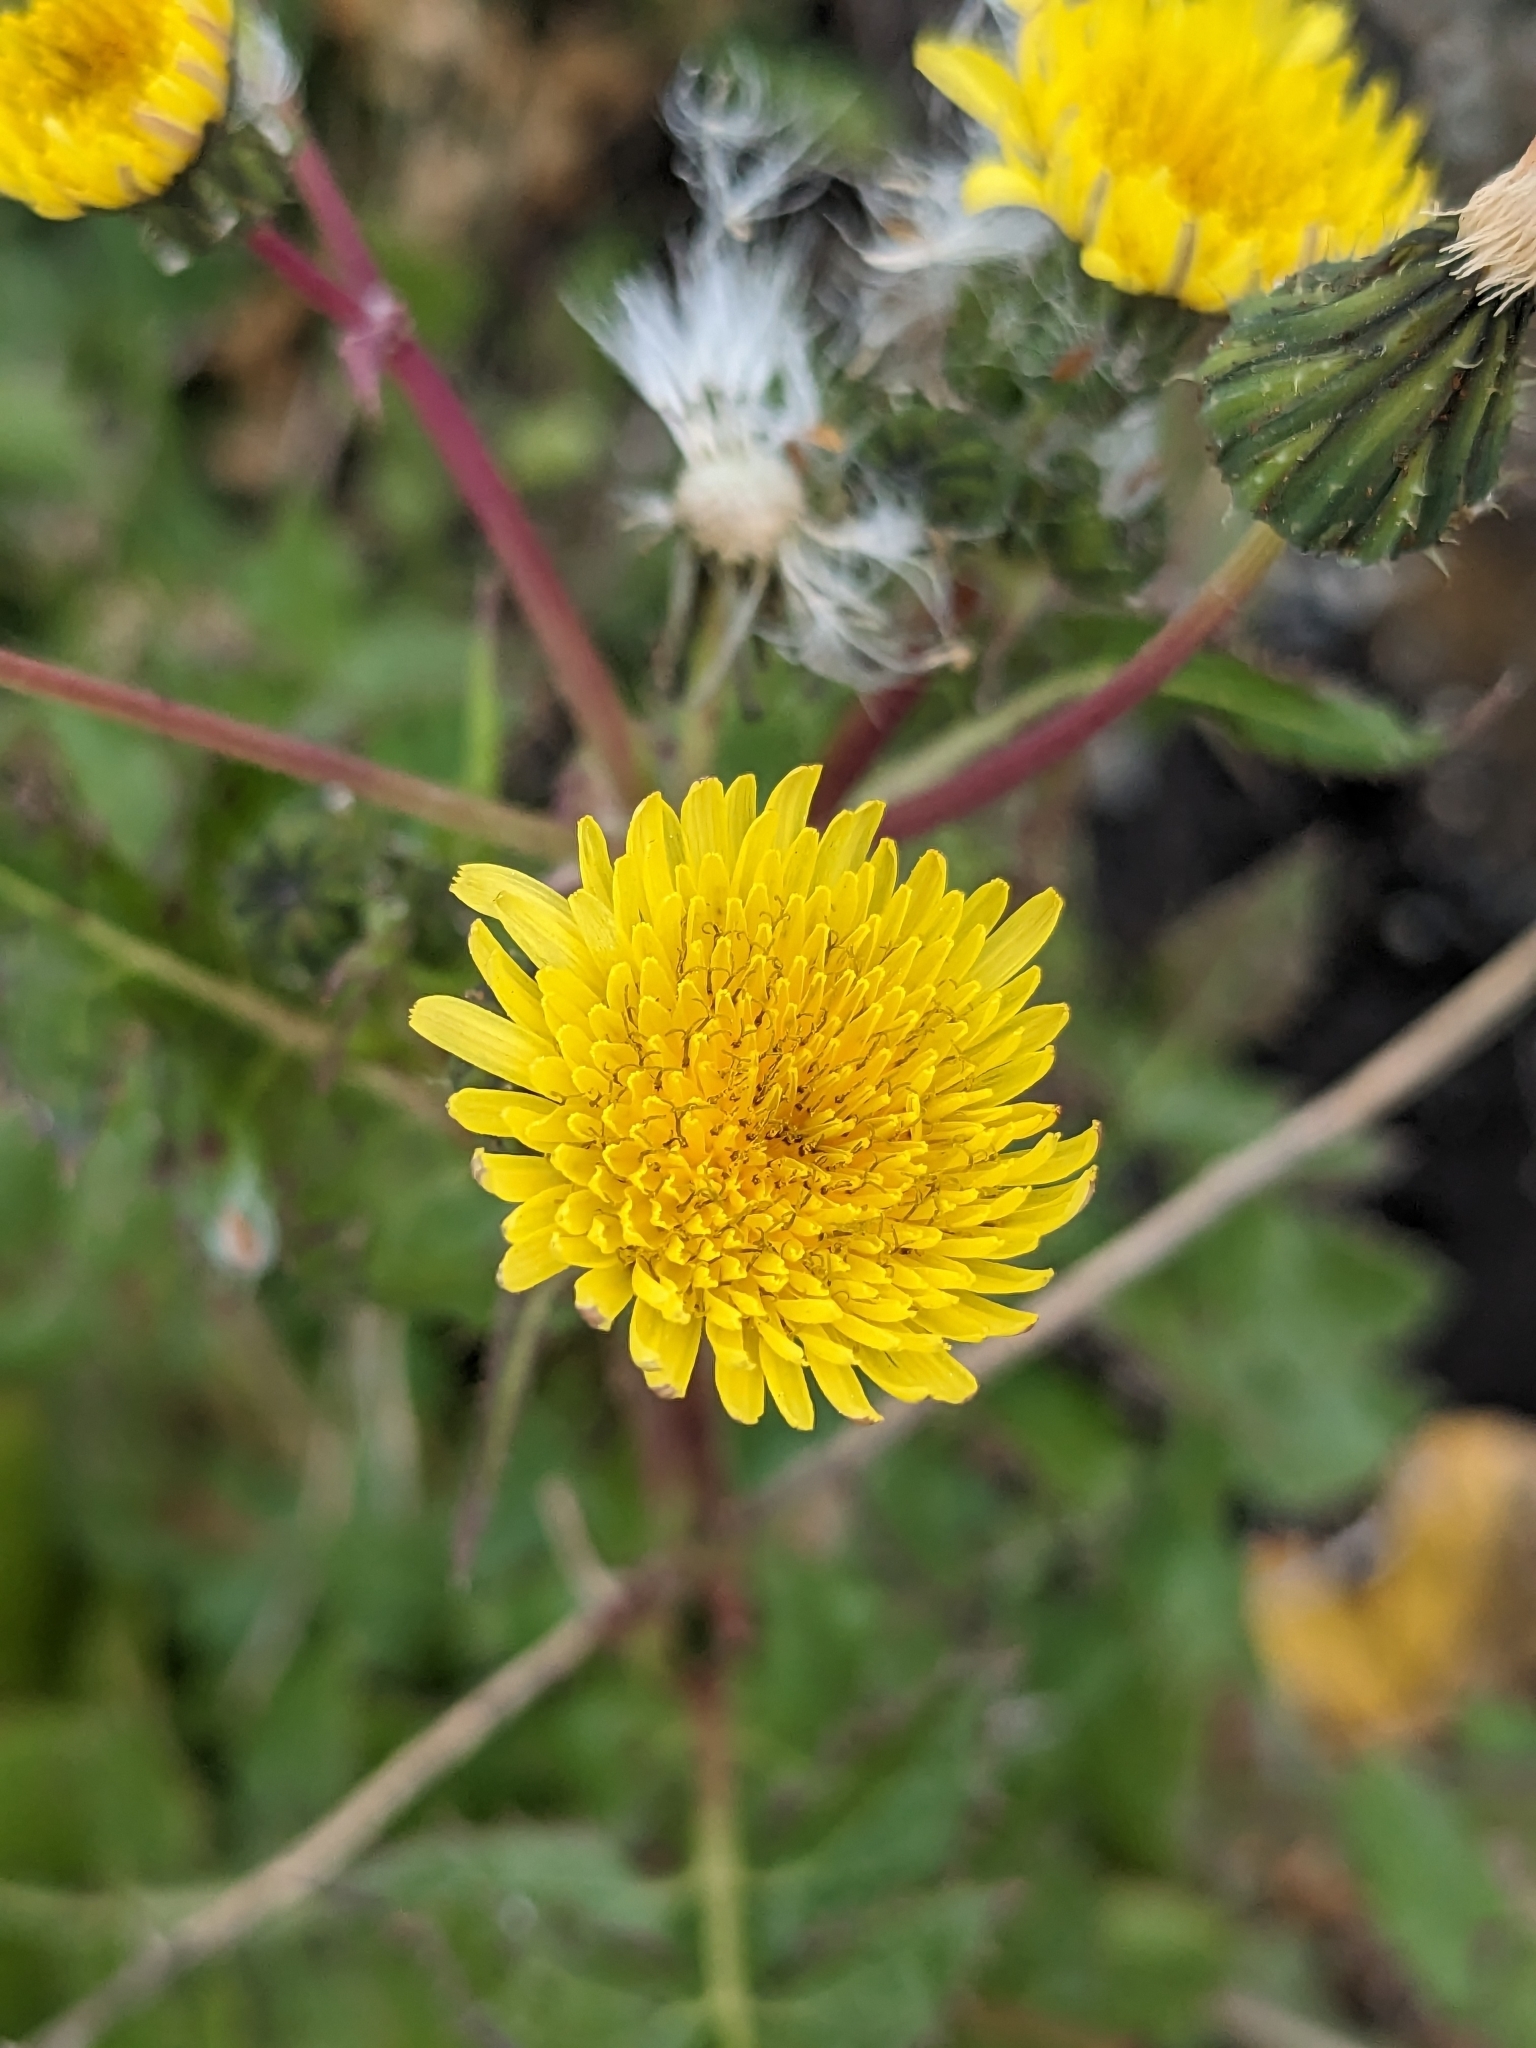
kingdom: Plantae
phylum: Tracheophyta
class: Magnoliopsida
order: Asterales
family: Asteraceae
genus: Sonchus
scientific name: Sonchus oleraceus
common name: Common sowthistle
